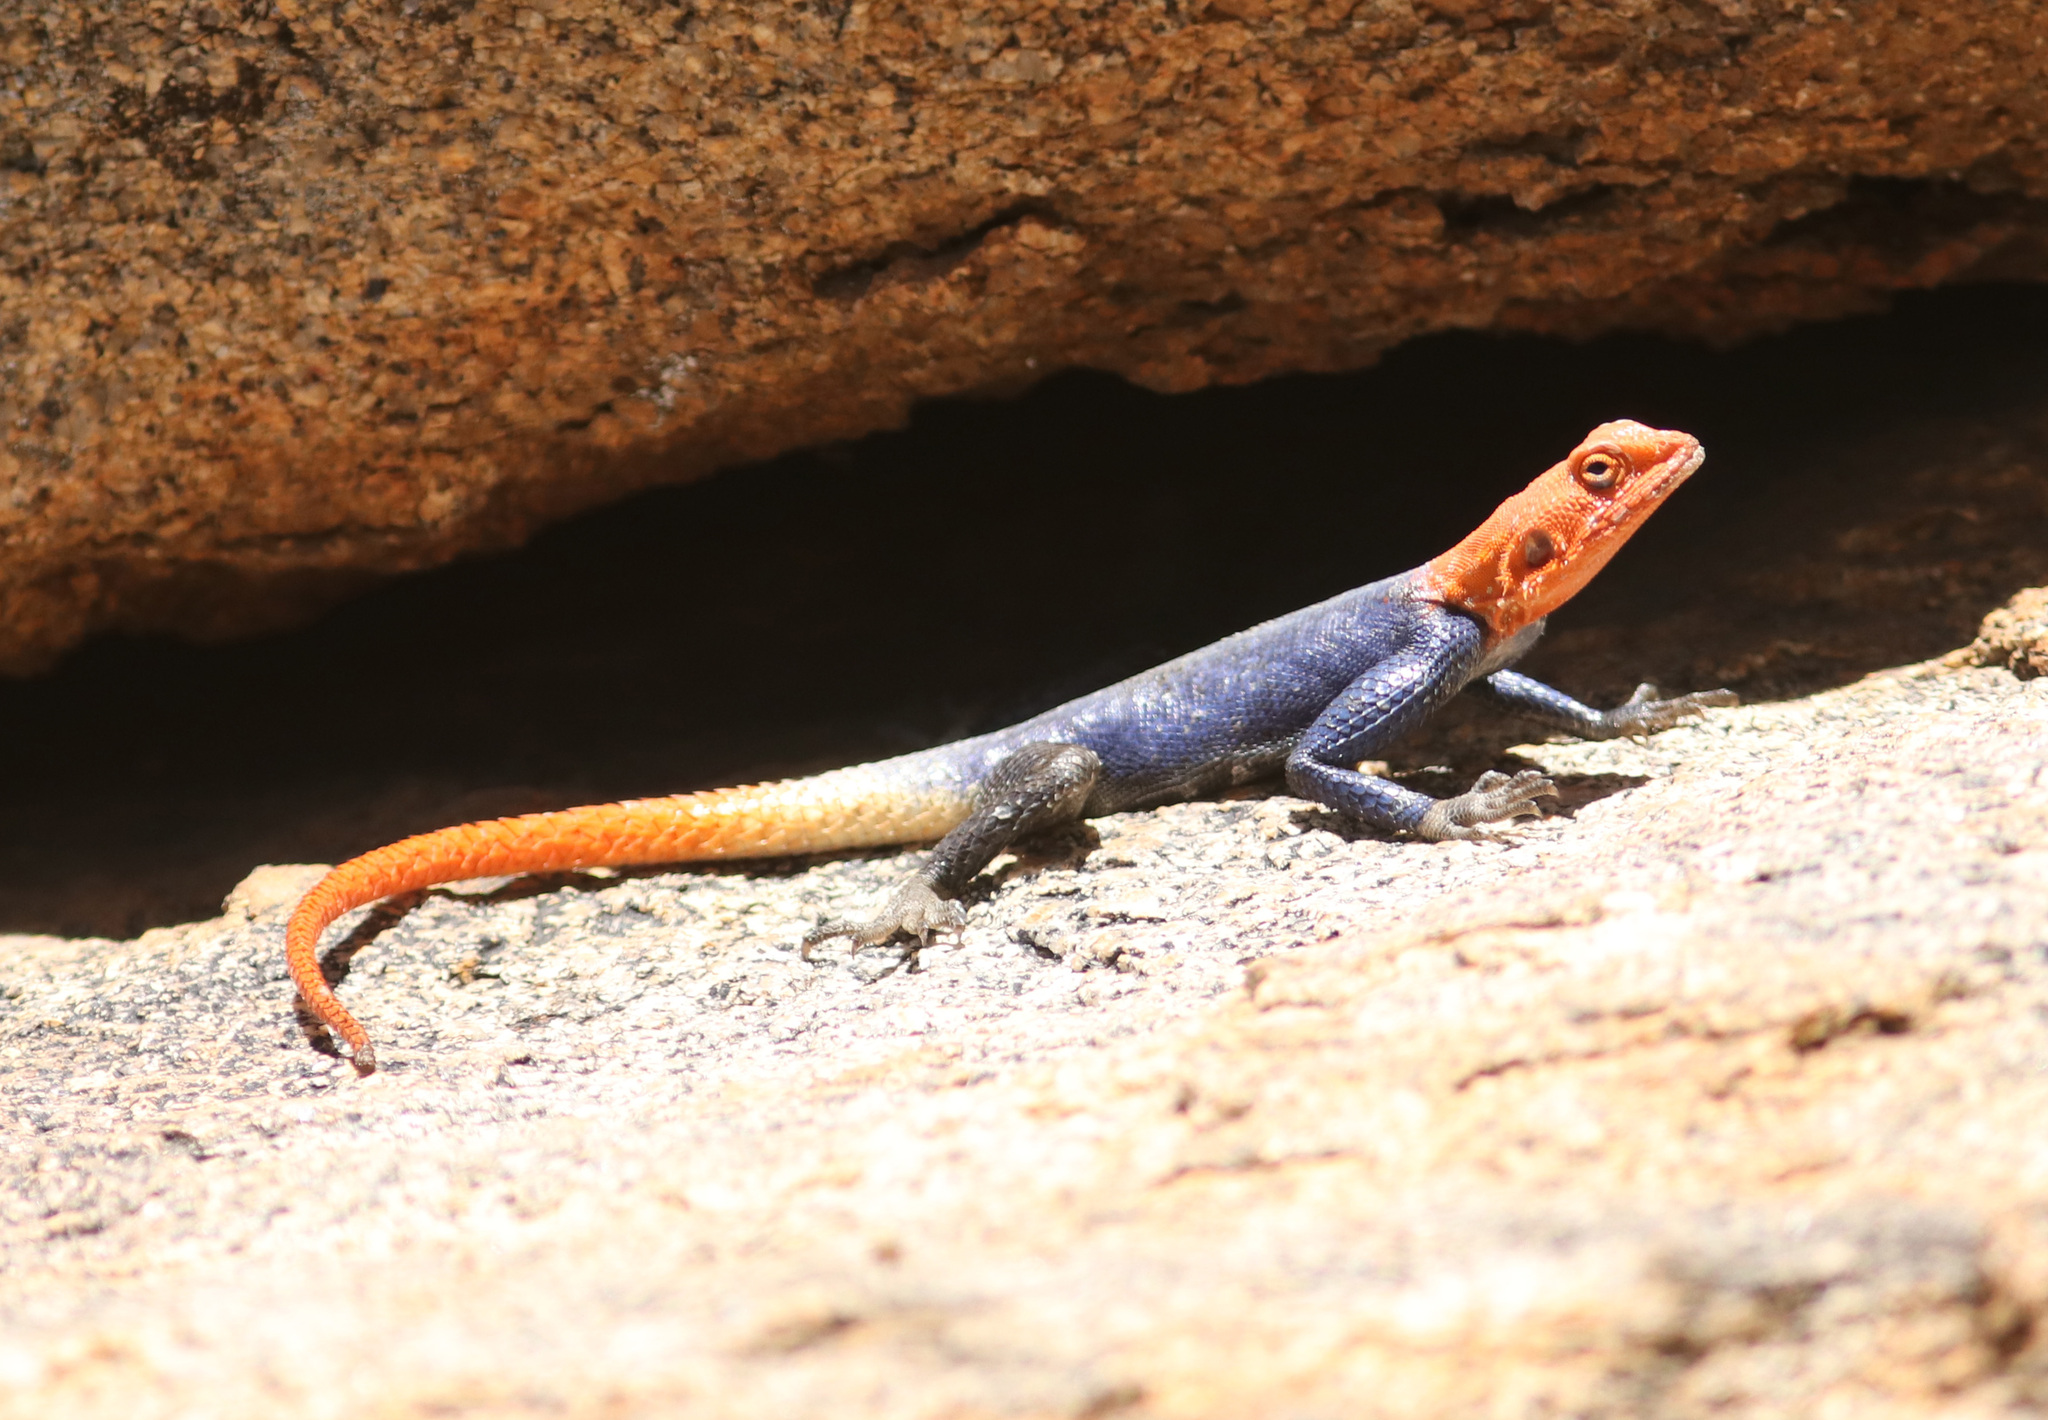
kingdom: Animalia
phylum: Chordata
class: Squamata
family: Agamidae
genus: Agama
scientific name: Agama planiceps
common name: Namib rock agama
